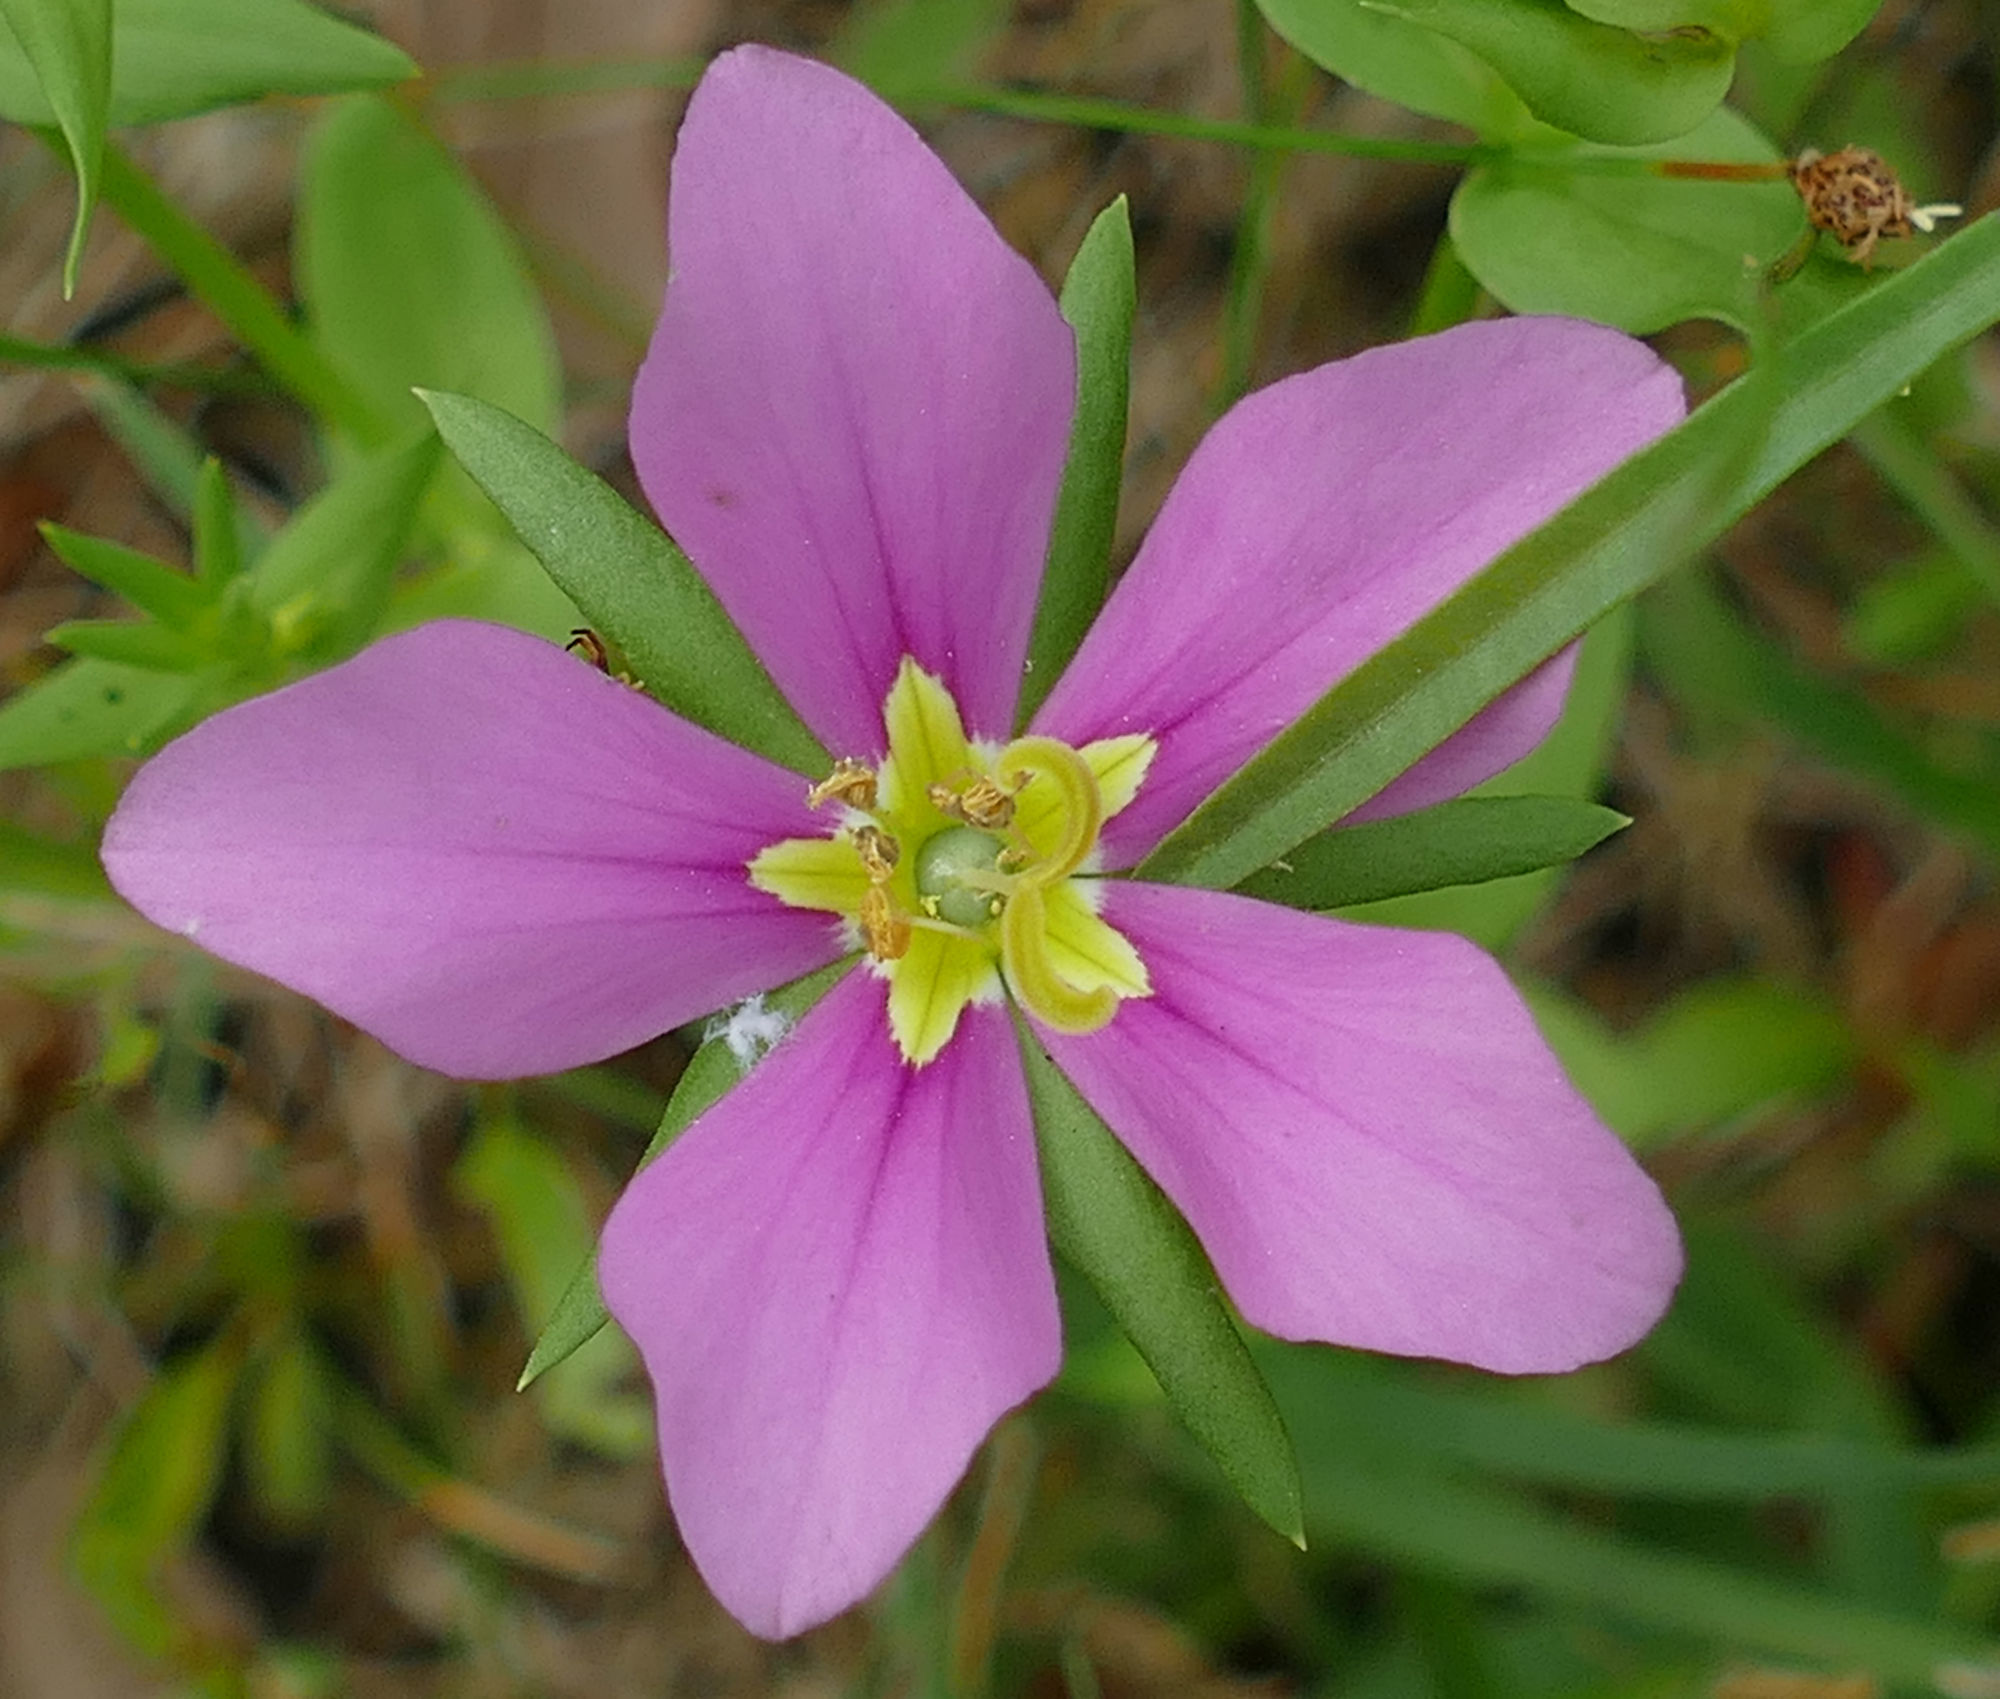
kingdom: Plantae
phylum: Tracheophyta
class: Magnoliopsida
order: Gentianales
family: Gentianaceae
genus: Sabatia
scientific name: Sabatia campestris
